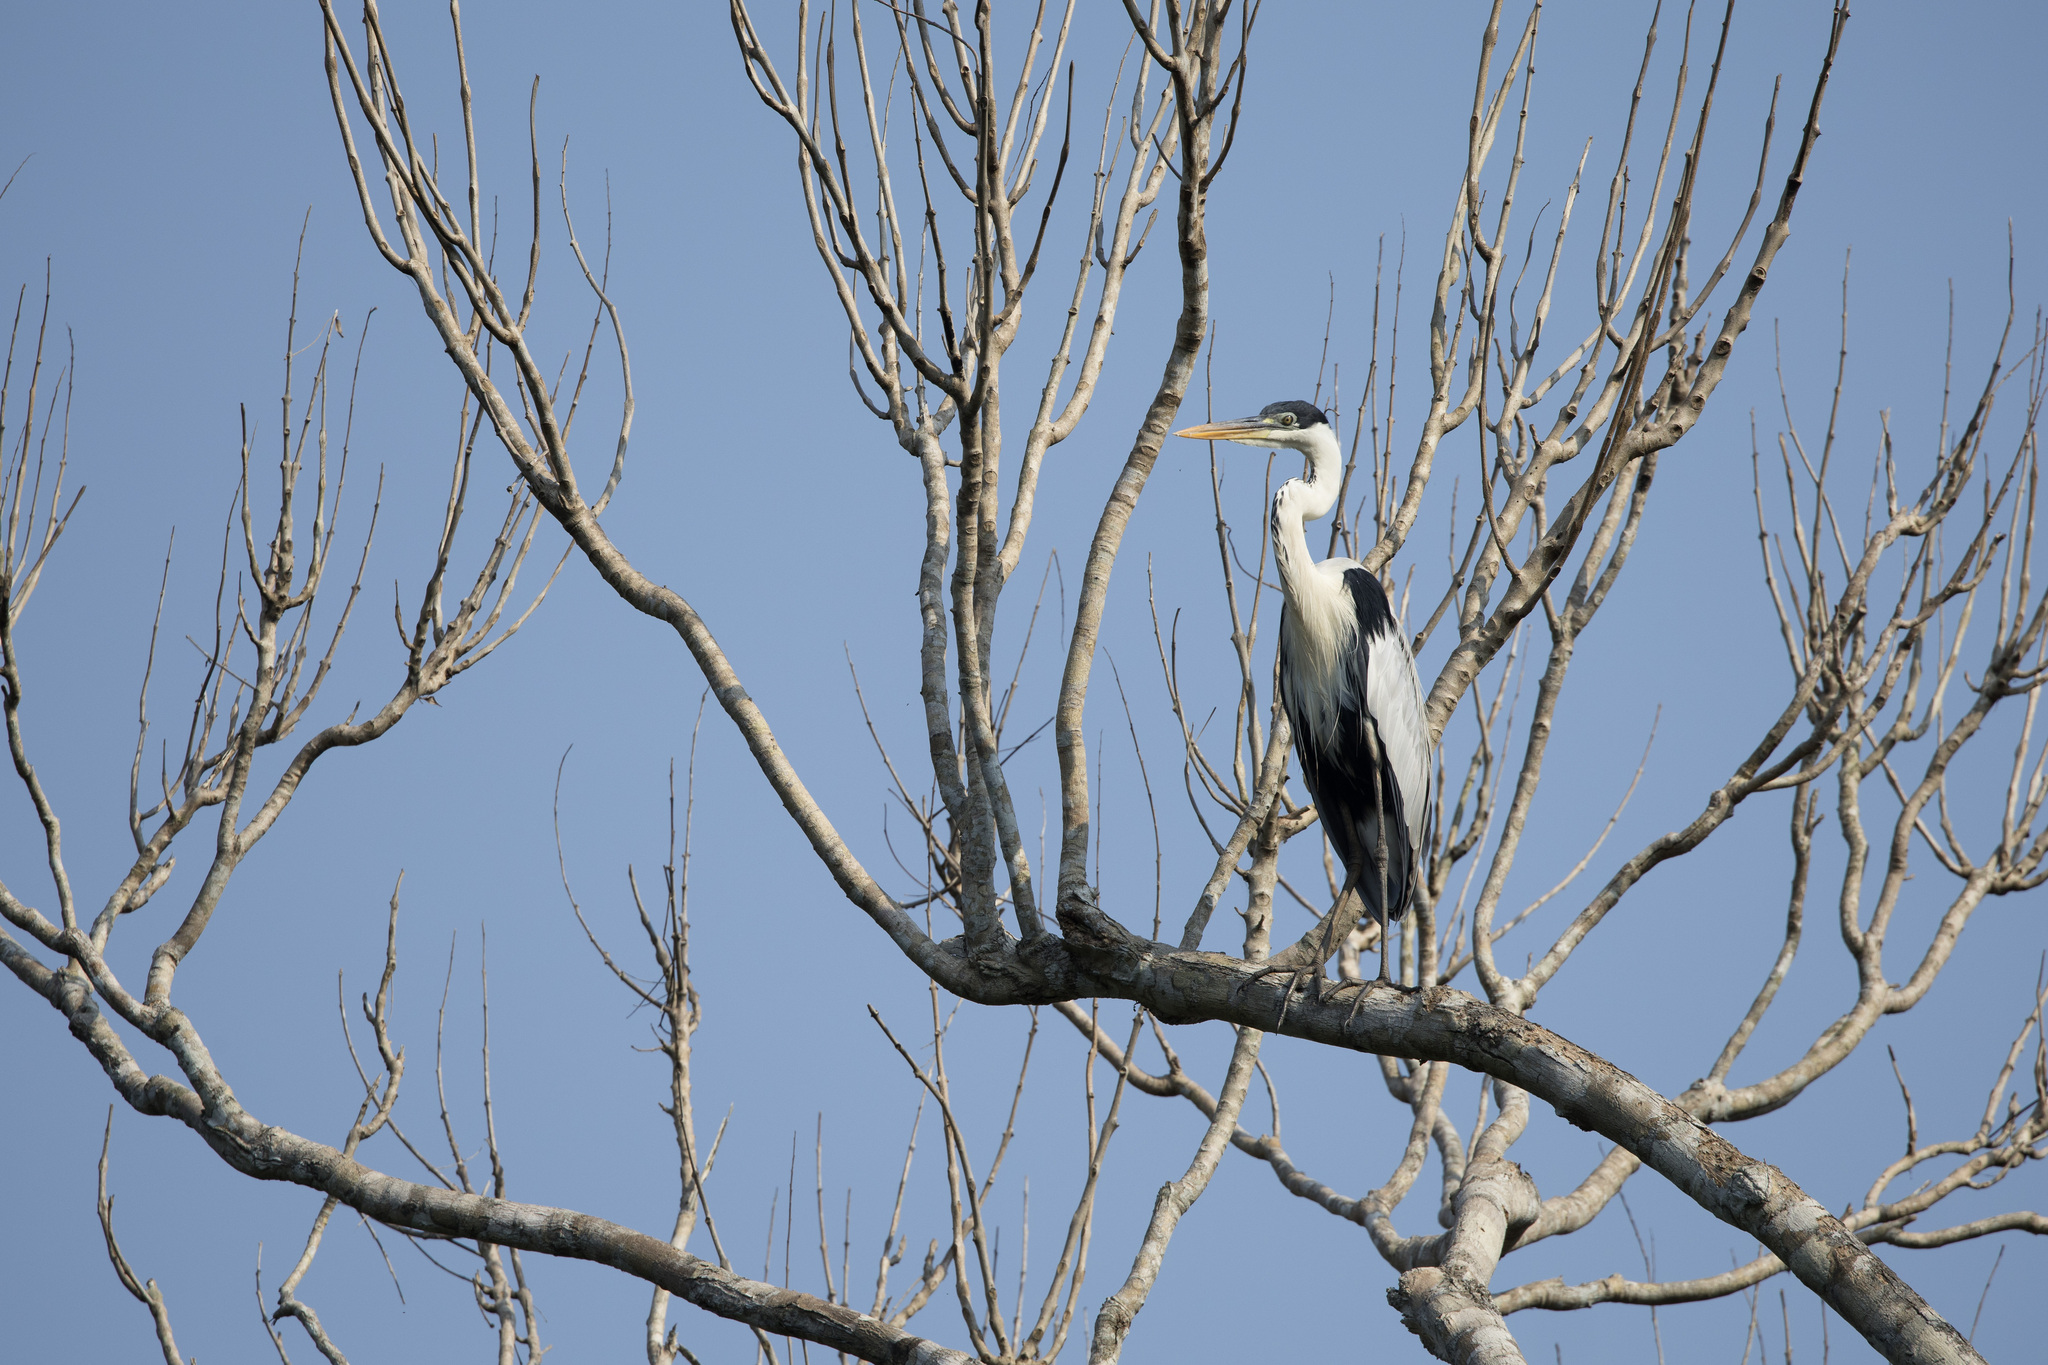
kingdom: Animalia
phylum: Chordata
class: Aves
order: Pelecaniformes
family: Ardeidae
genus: Ardea
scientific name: Ardea cocoi
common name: Cocoi heron
